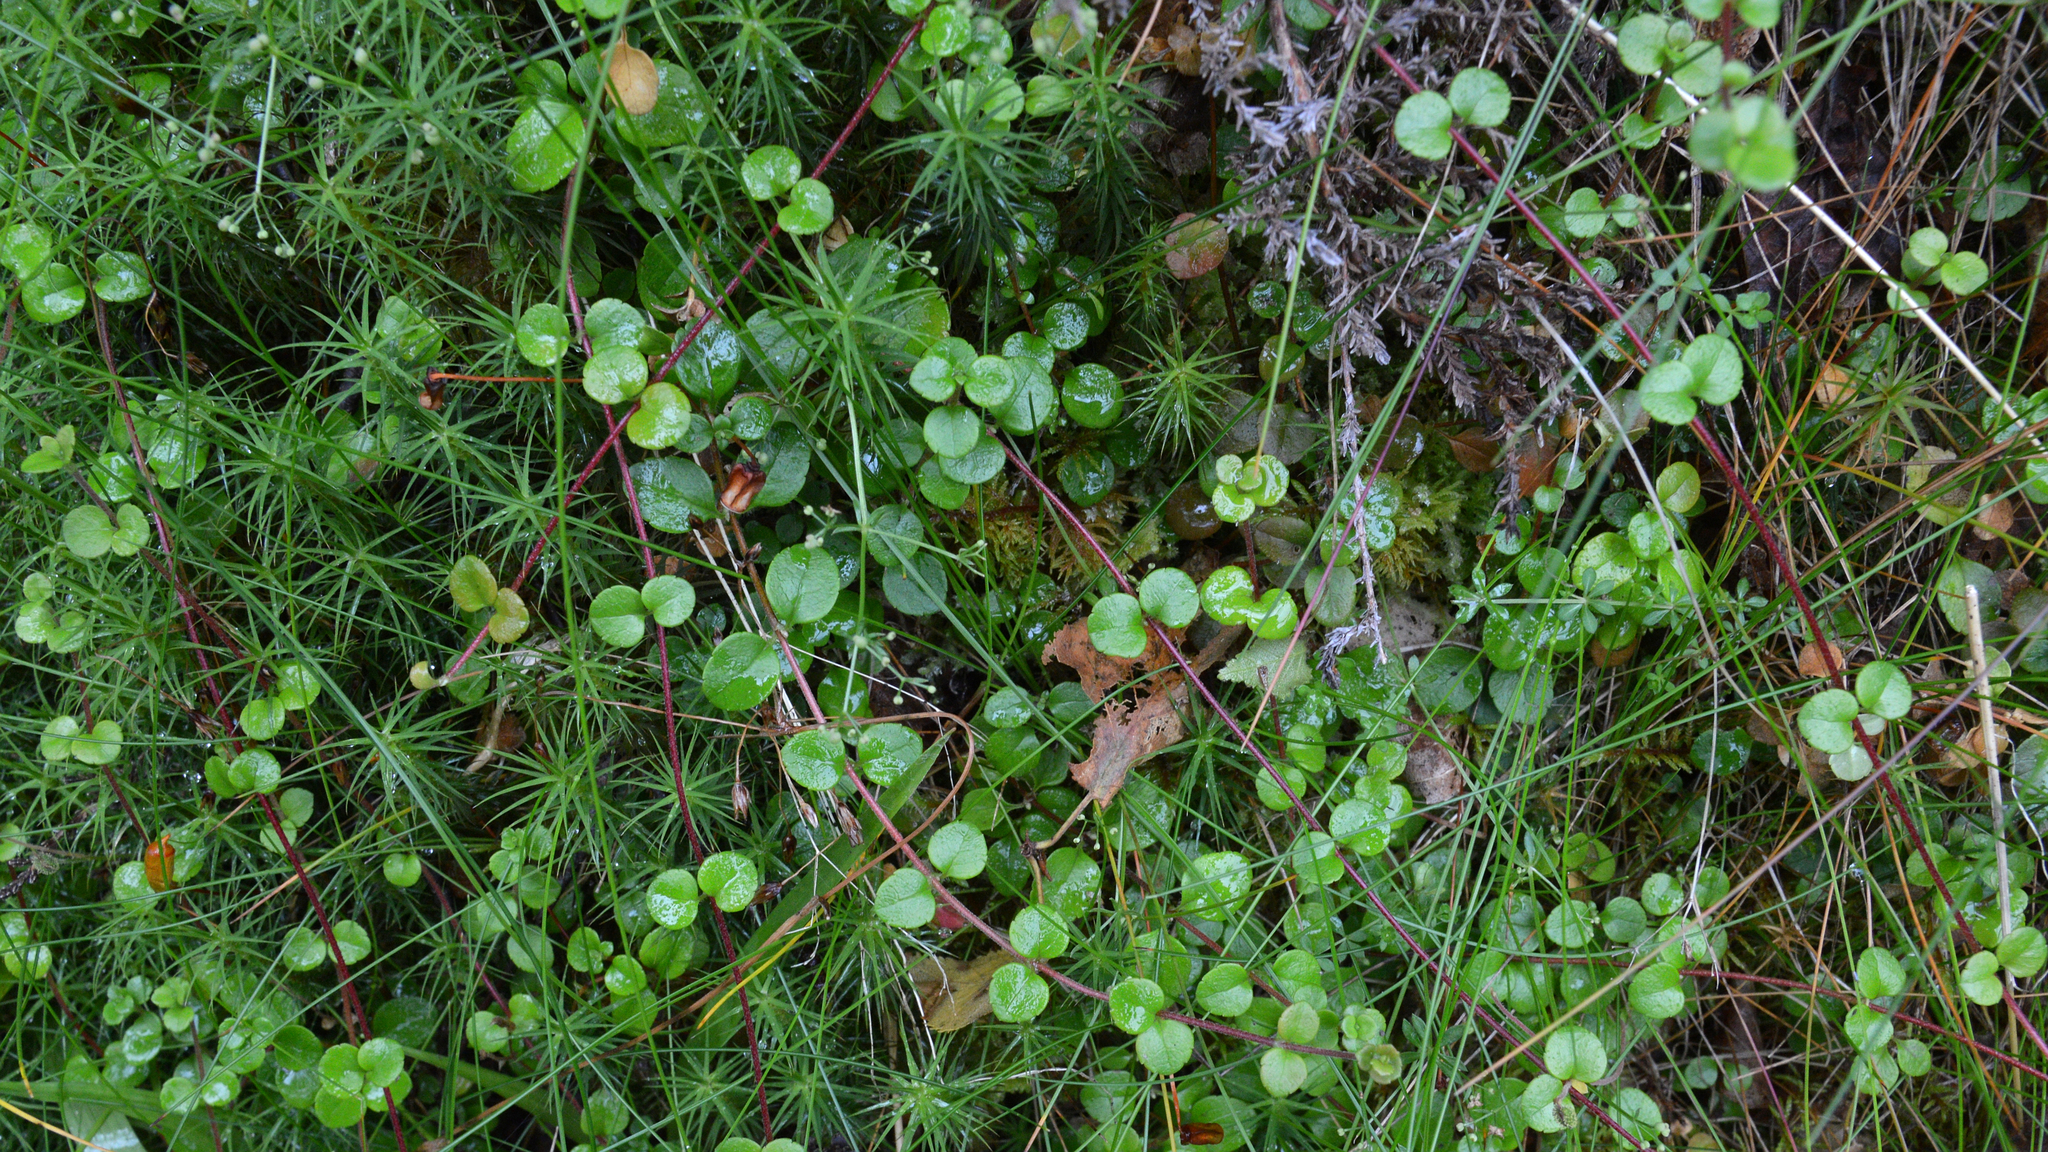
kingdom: Plantae
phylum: Tracheophyta
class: Magnoliopsida
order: Dipsacales
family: Caprifoliaceae
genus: Linnaea
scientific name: Linnaea borealis
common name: Twinflower
